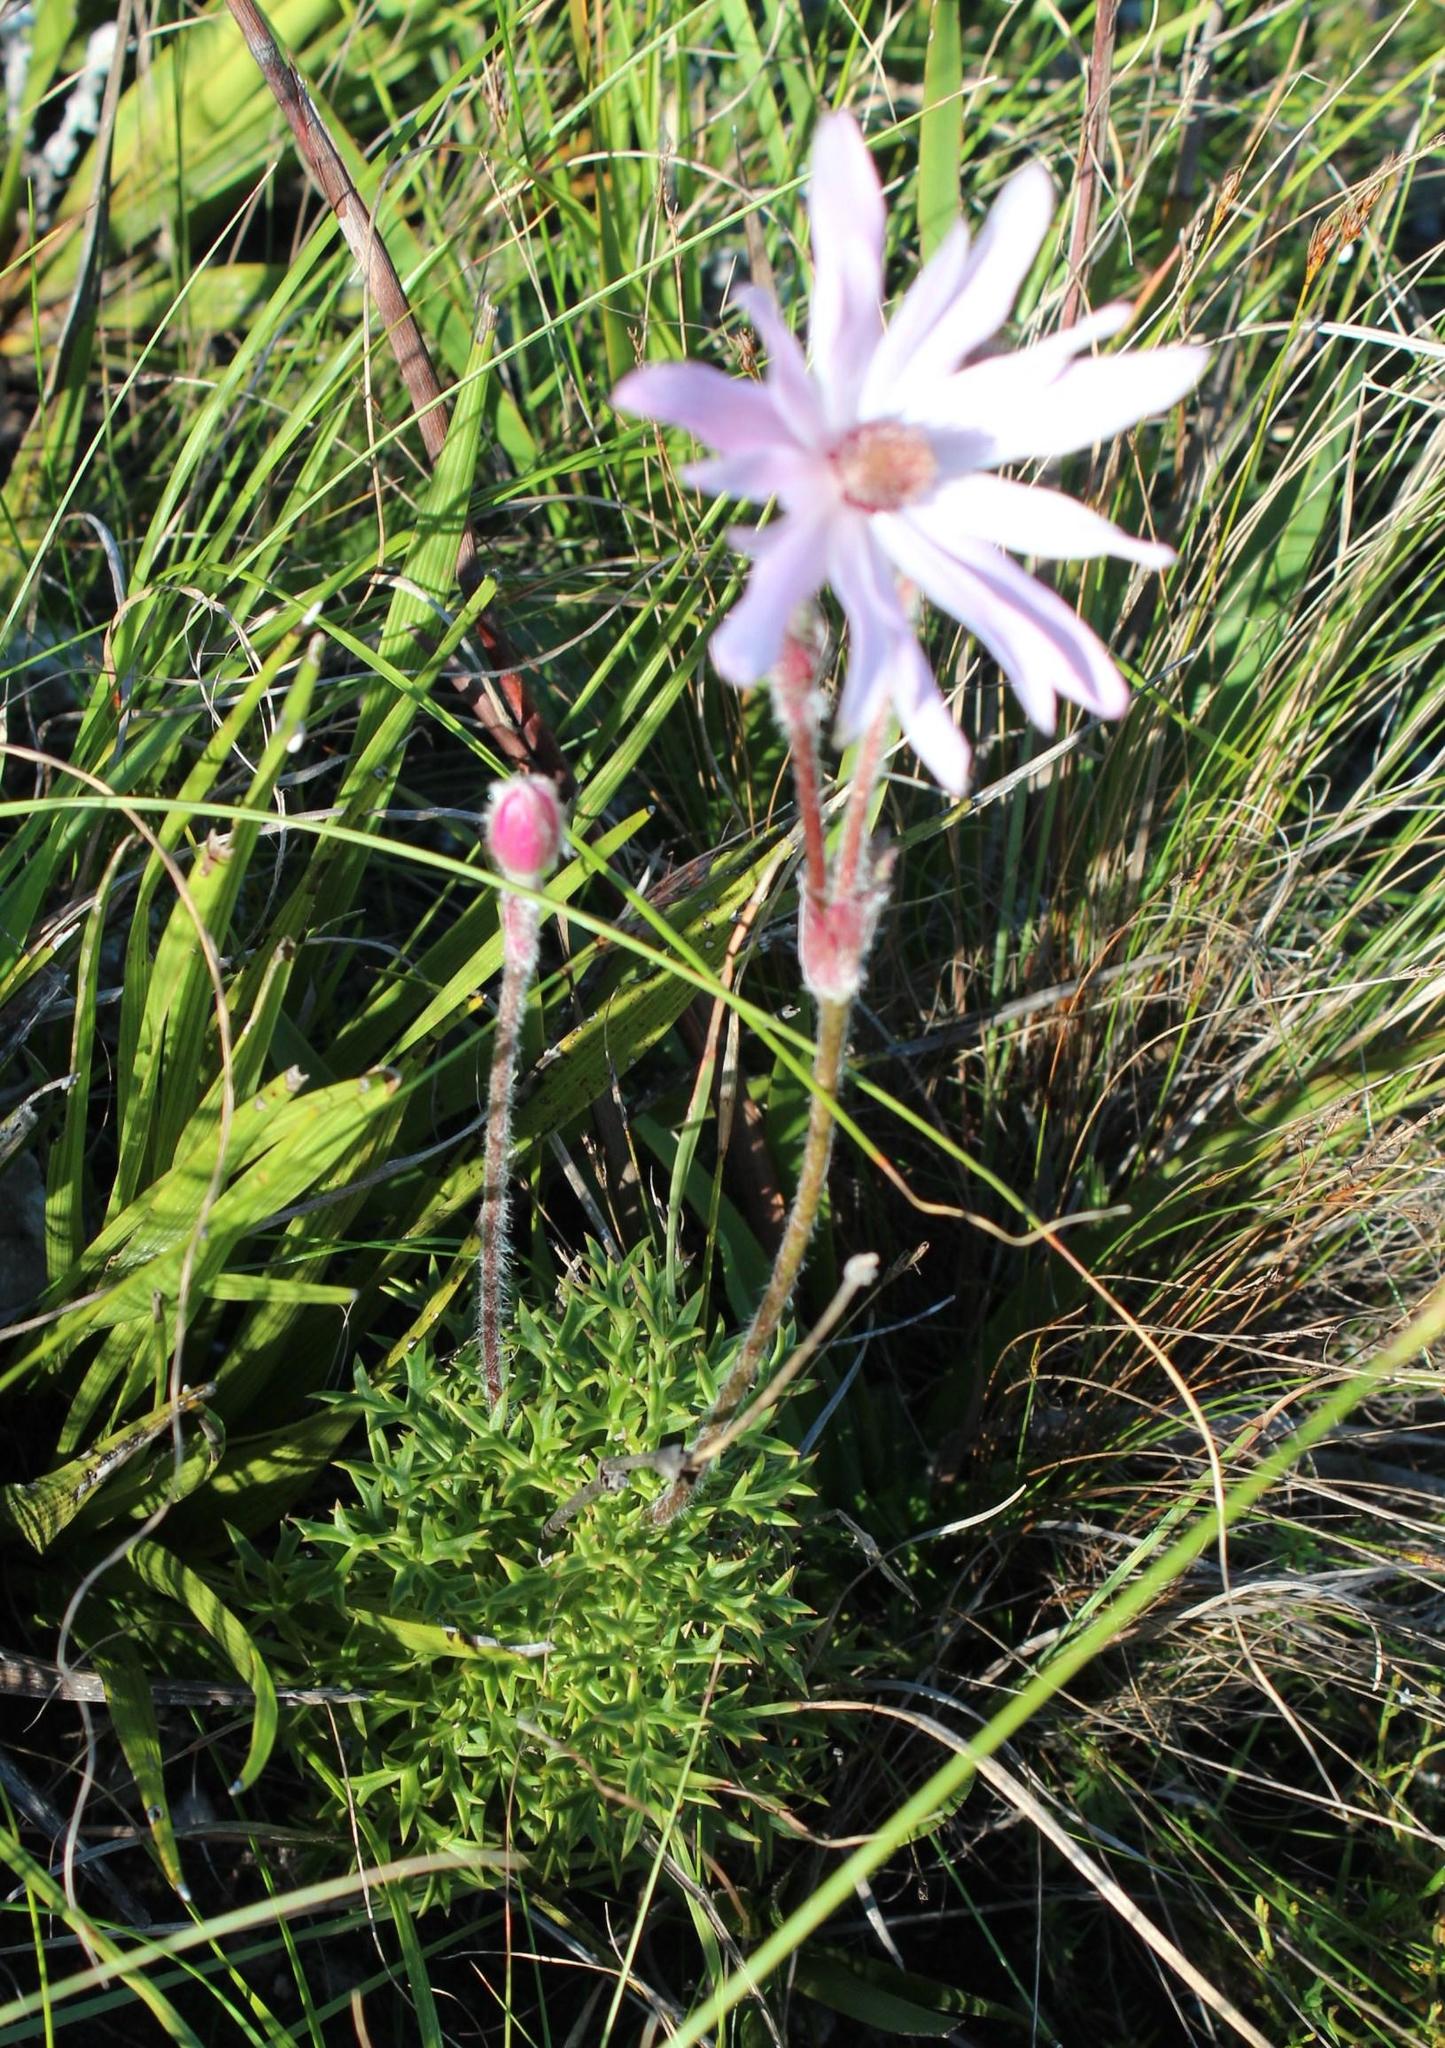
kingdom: Plantae
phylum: Tracheophyta
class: Magnoliopsida
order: Ranunculales
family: Ranunculaceae
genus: Knowltonia
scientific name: Knowltonia tenuifolia
